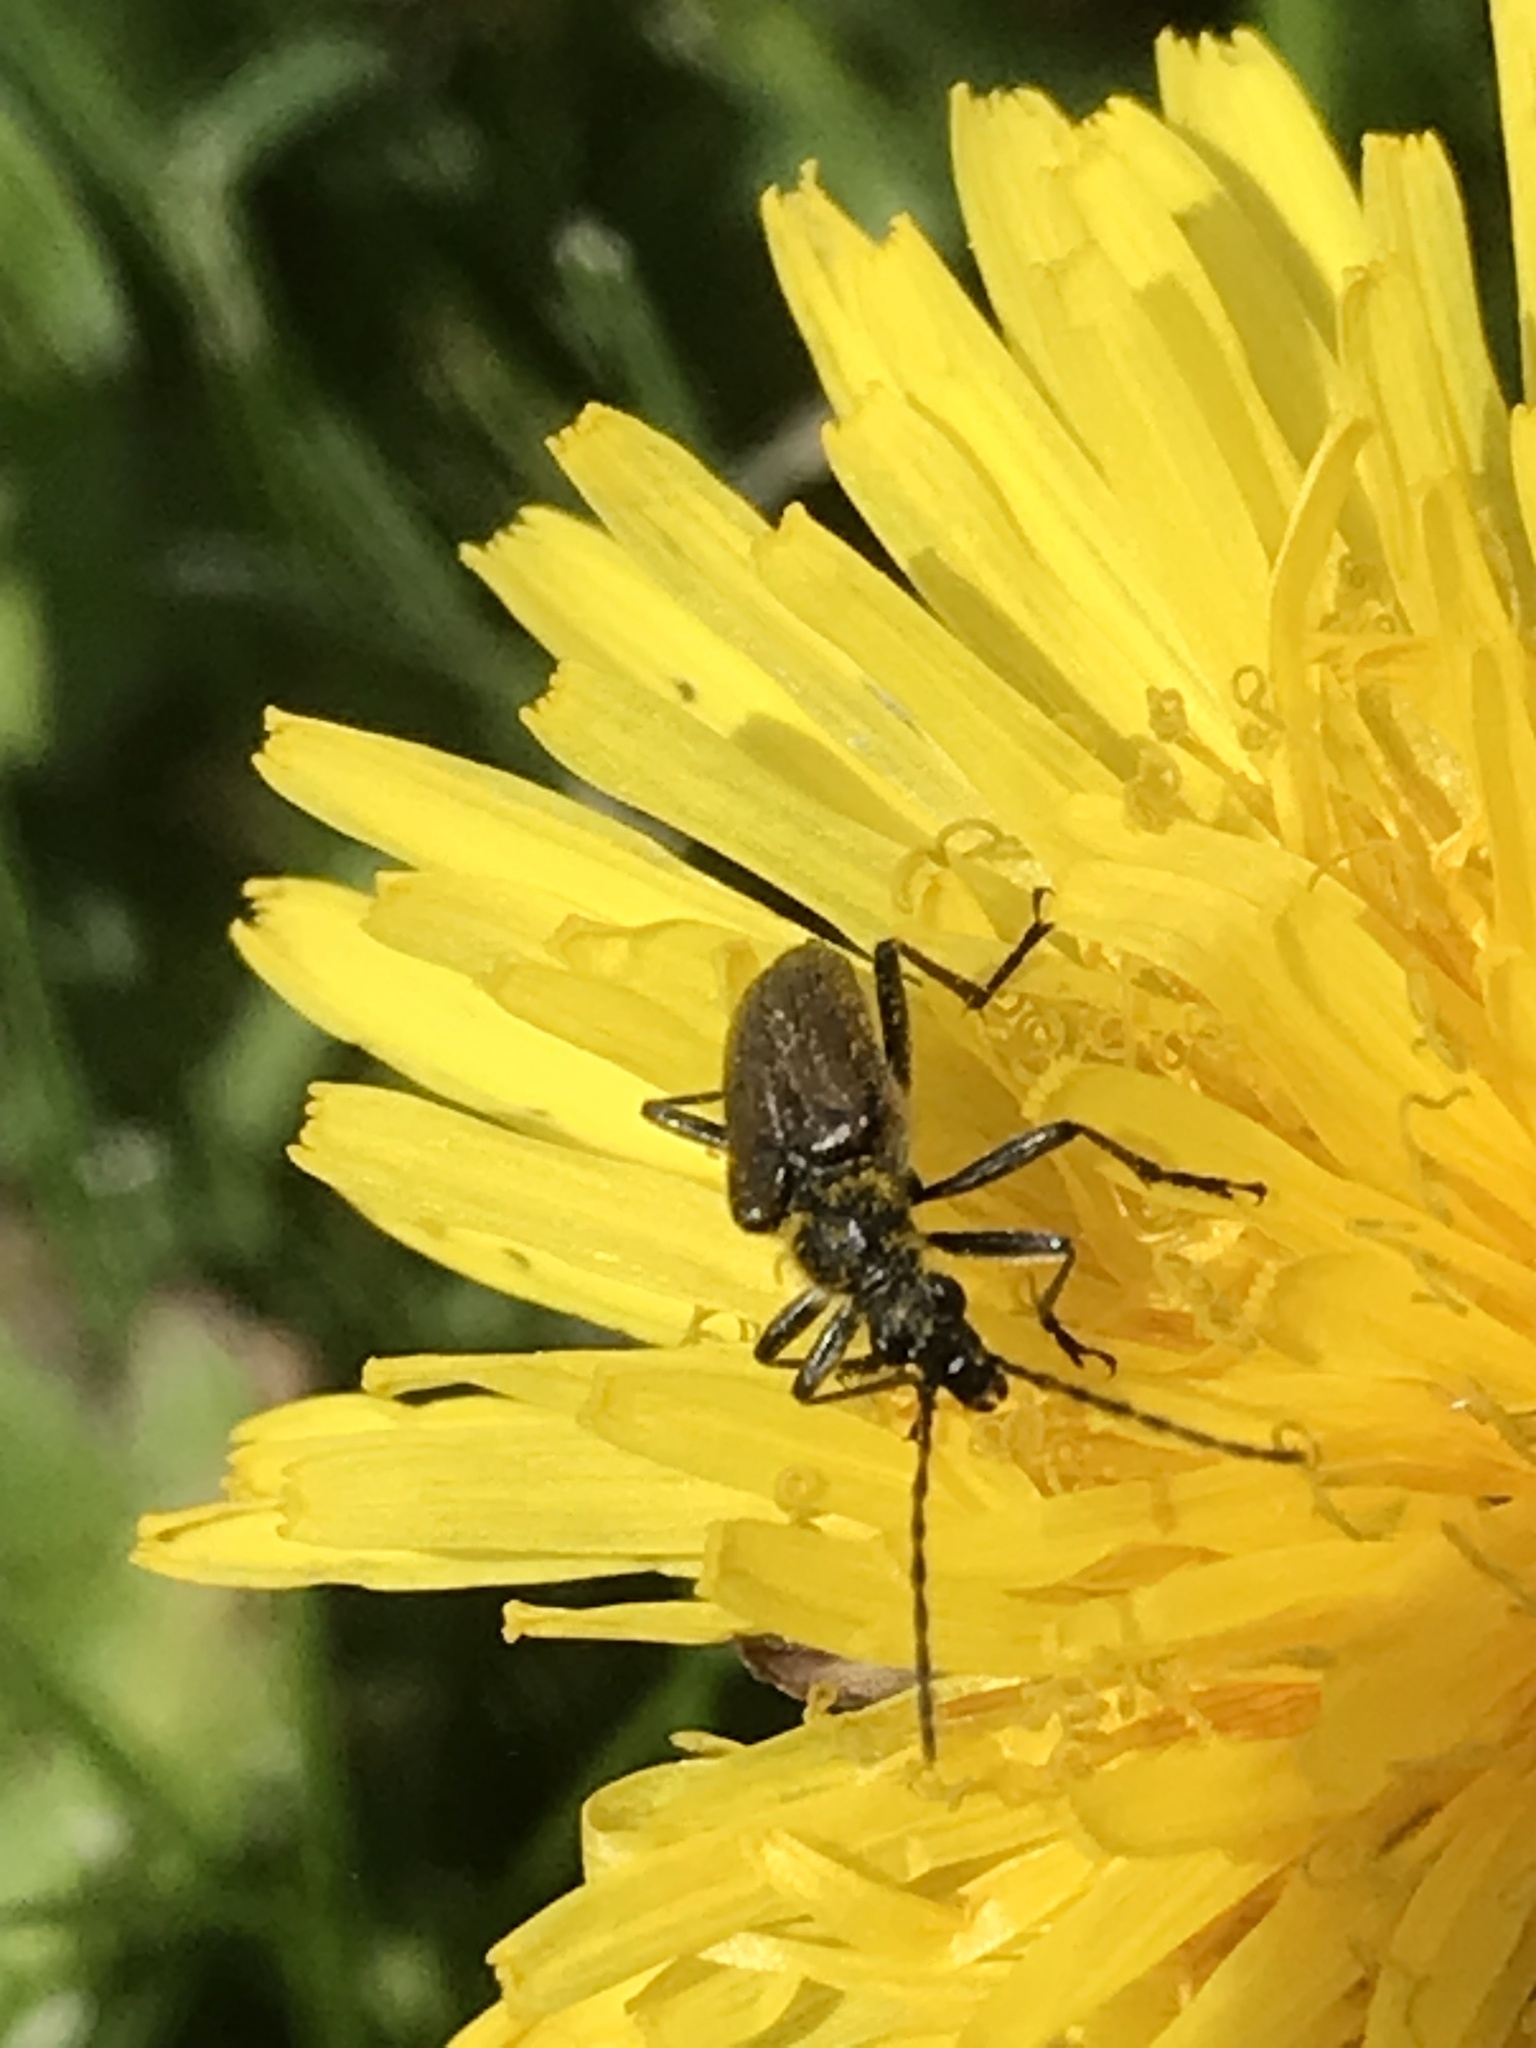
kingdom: Animalia
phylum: Arthropoda
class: Insecta
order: Coleoptera
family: Cerambycidae
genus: Gnathacmaeops
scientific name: Gnathacmaeops pratensis
